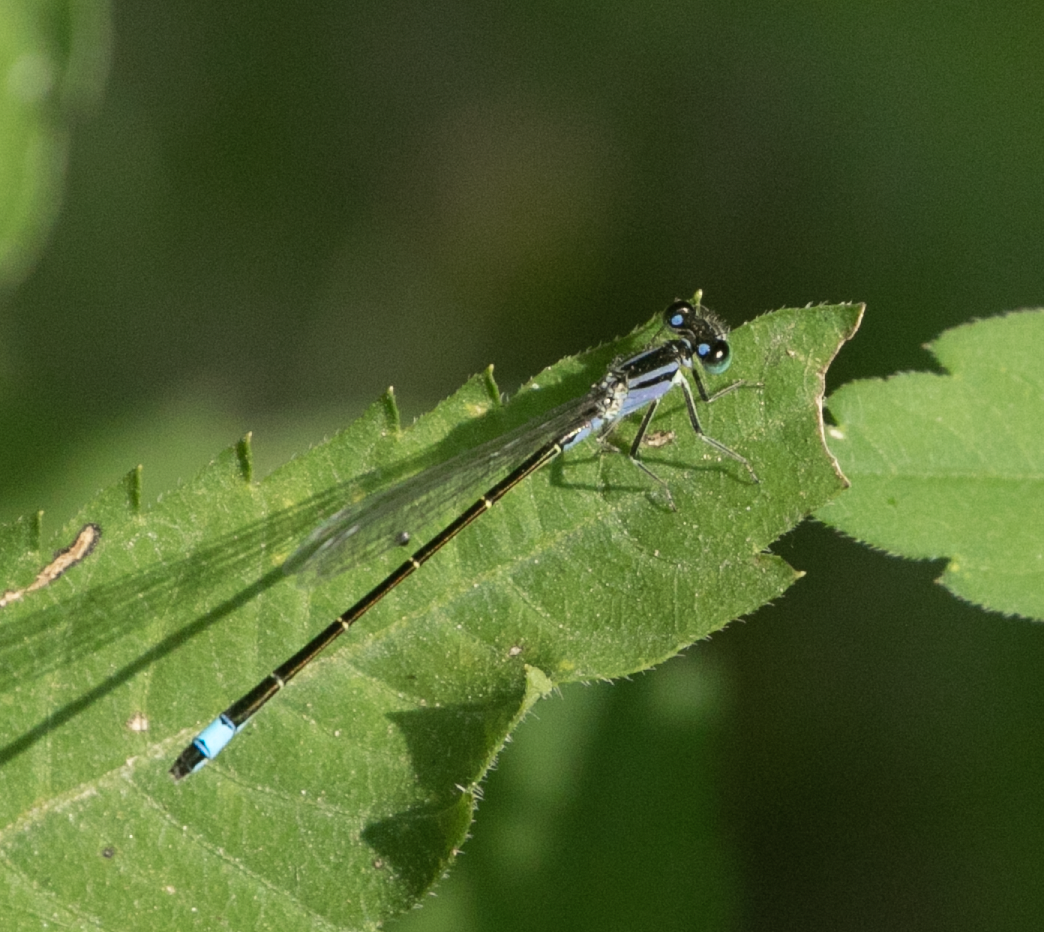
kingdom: Animalia
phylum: Arthropoda
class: Insecta
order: Odonata
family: Coenagrionidae
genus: Ischnura
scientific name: Ischnura elegans
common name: Blue-tailed damselfly
